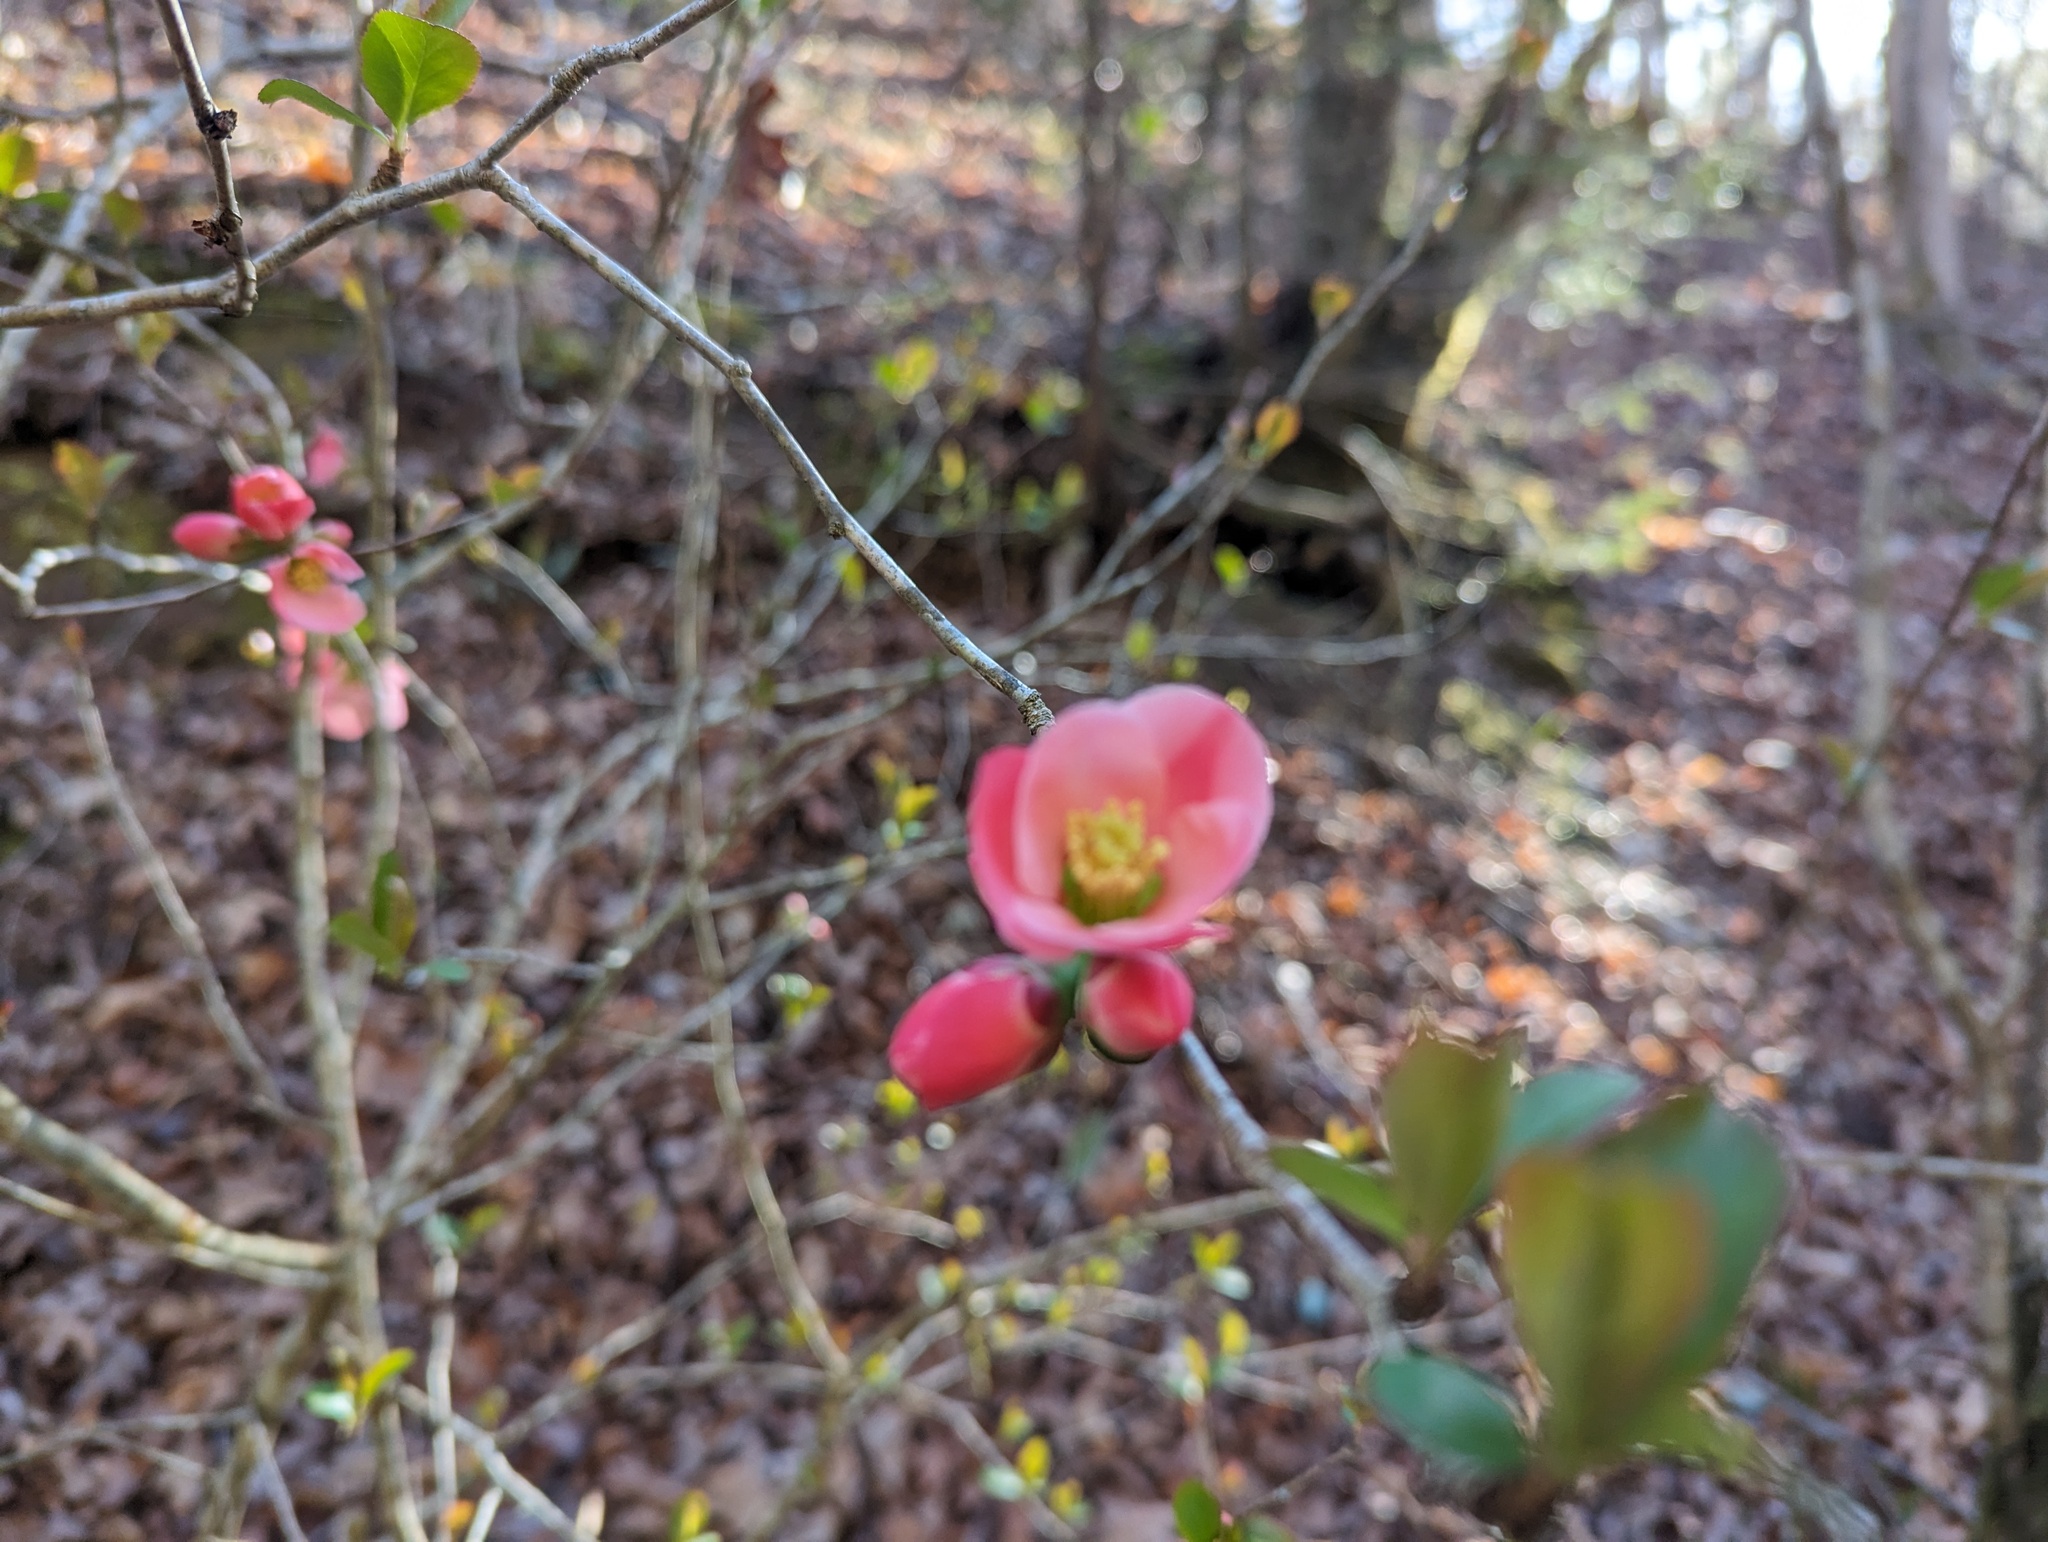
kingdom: Plantae
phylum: Tracheophyta
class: Magnoliopsida
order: Rosales
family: Rosaceae
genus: Chaenomeles
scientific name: Chaenomeles speciosa
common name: Japanese quince
